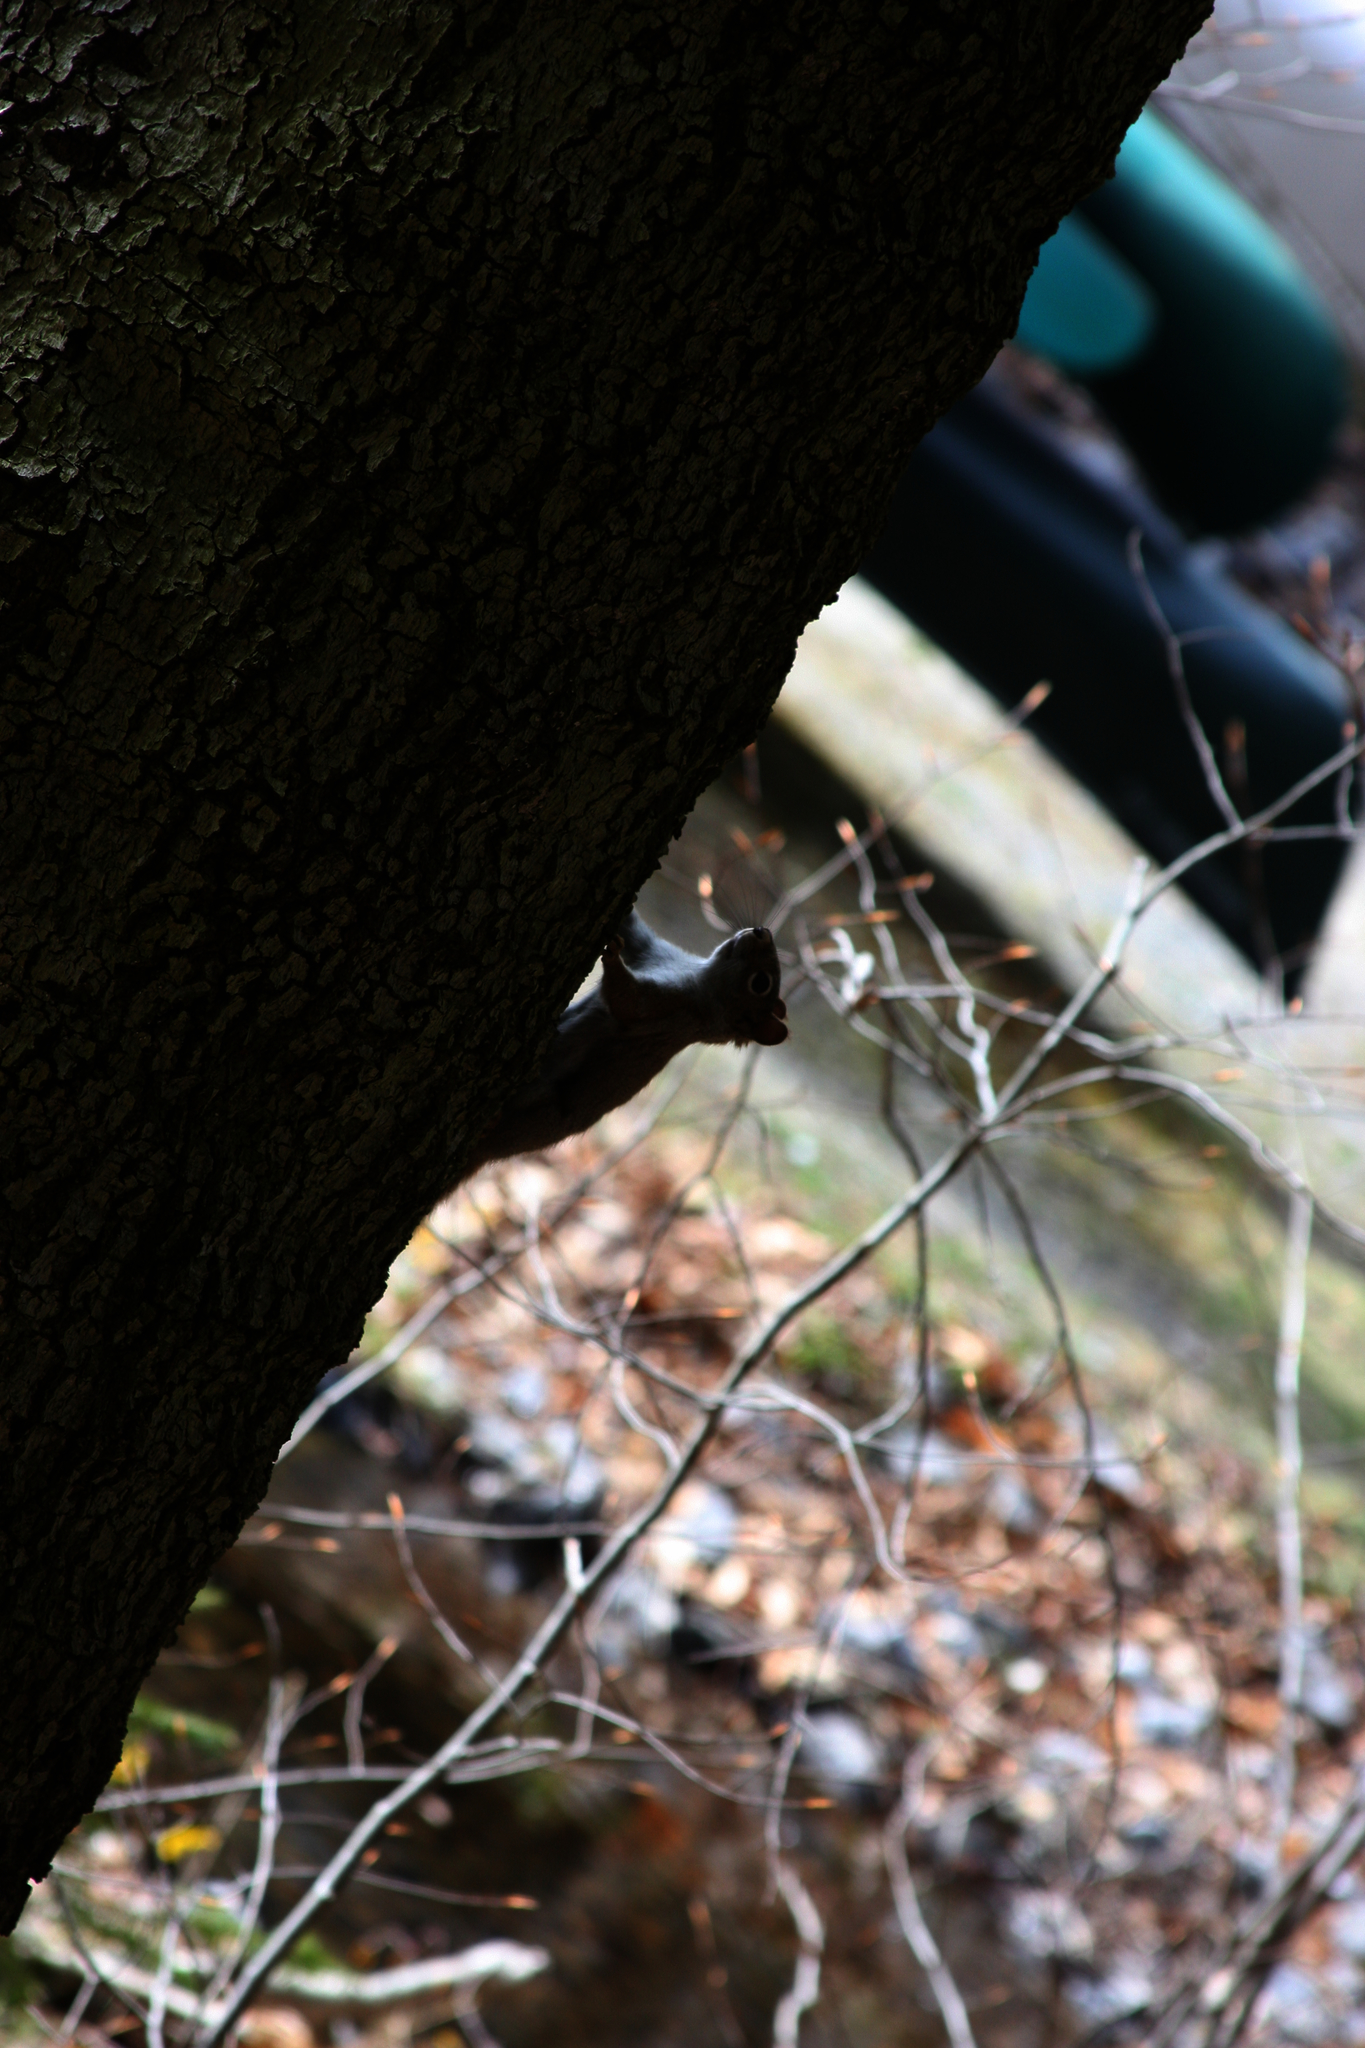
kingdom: Animalia
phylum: Chordata
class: Mammalia
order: Rodentia
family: Sciuridae
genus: Tamiasciurus
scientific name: Tamiasciurus hudsonicus
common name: Red squirrel
